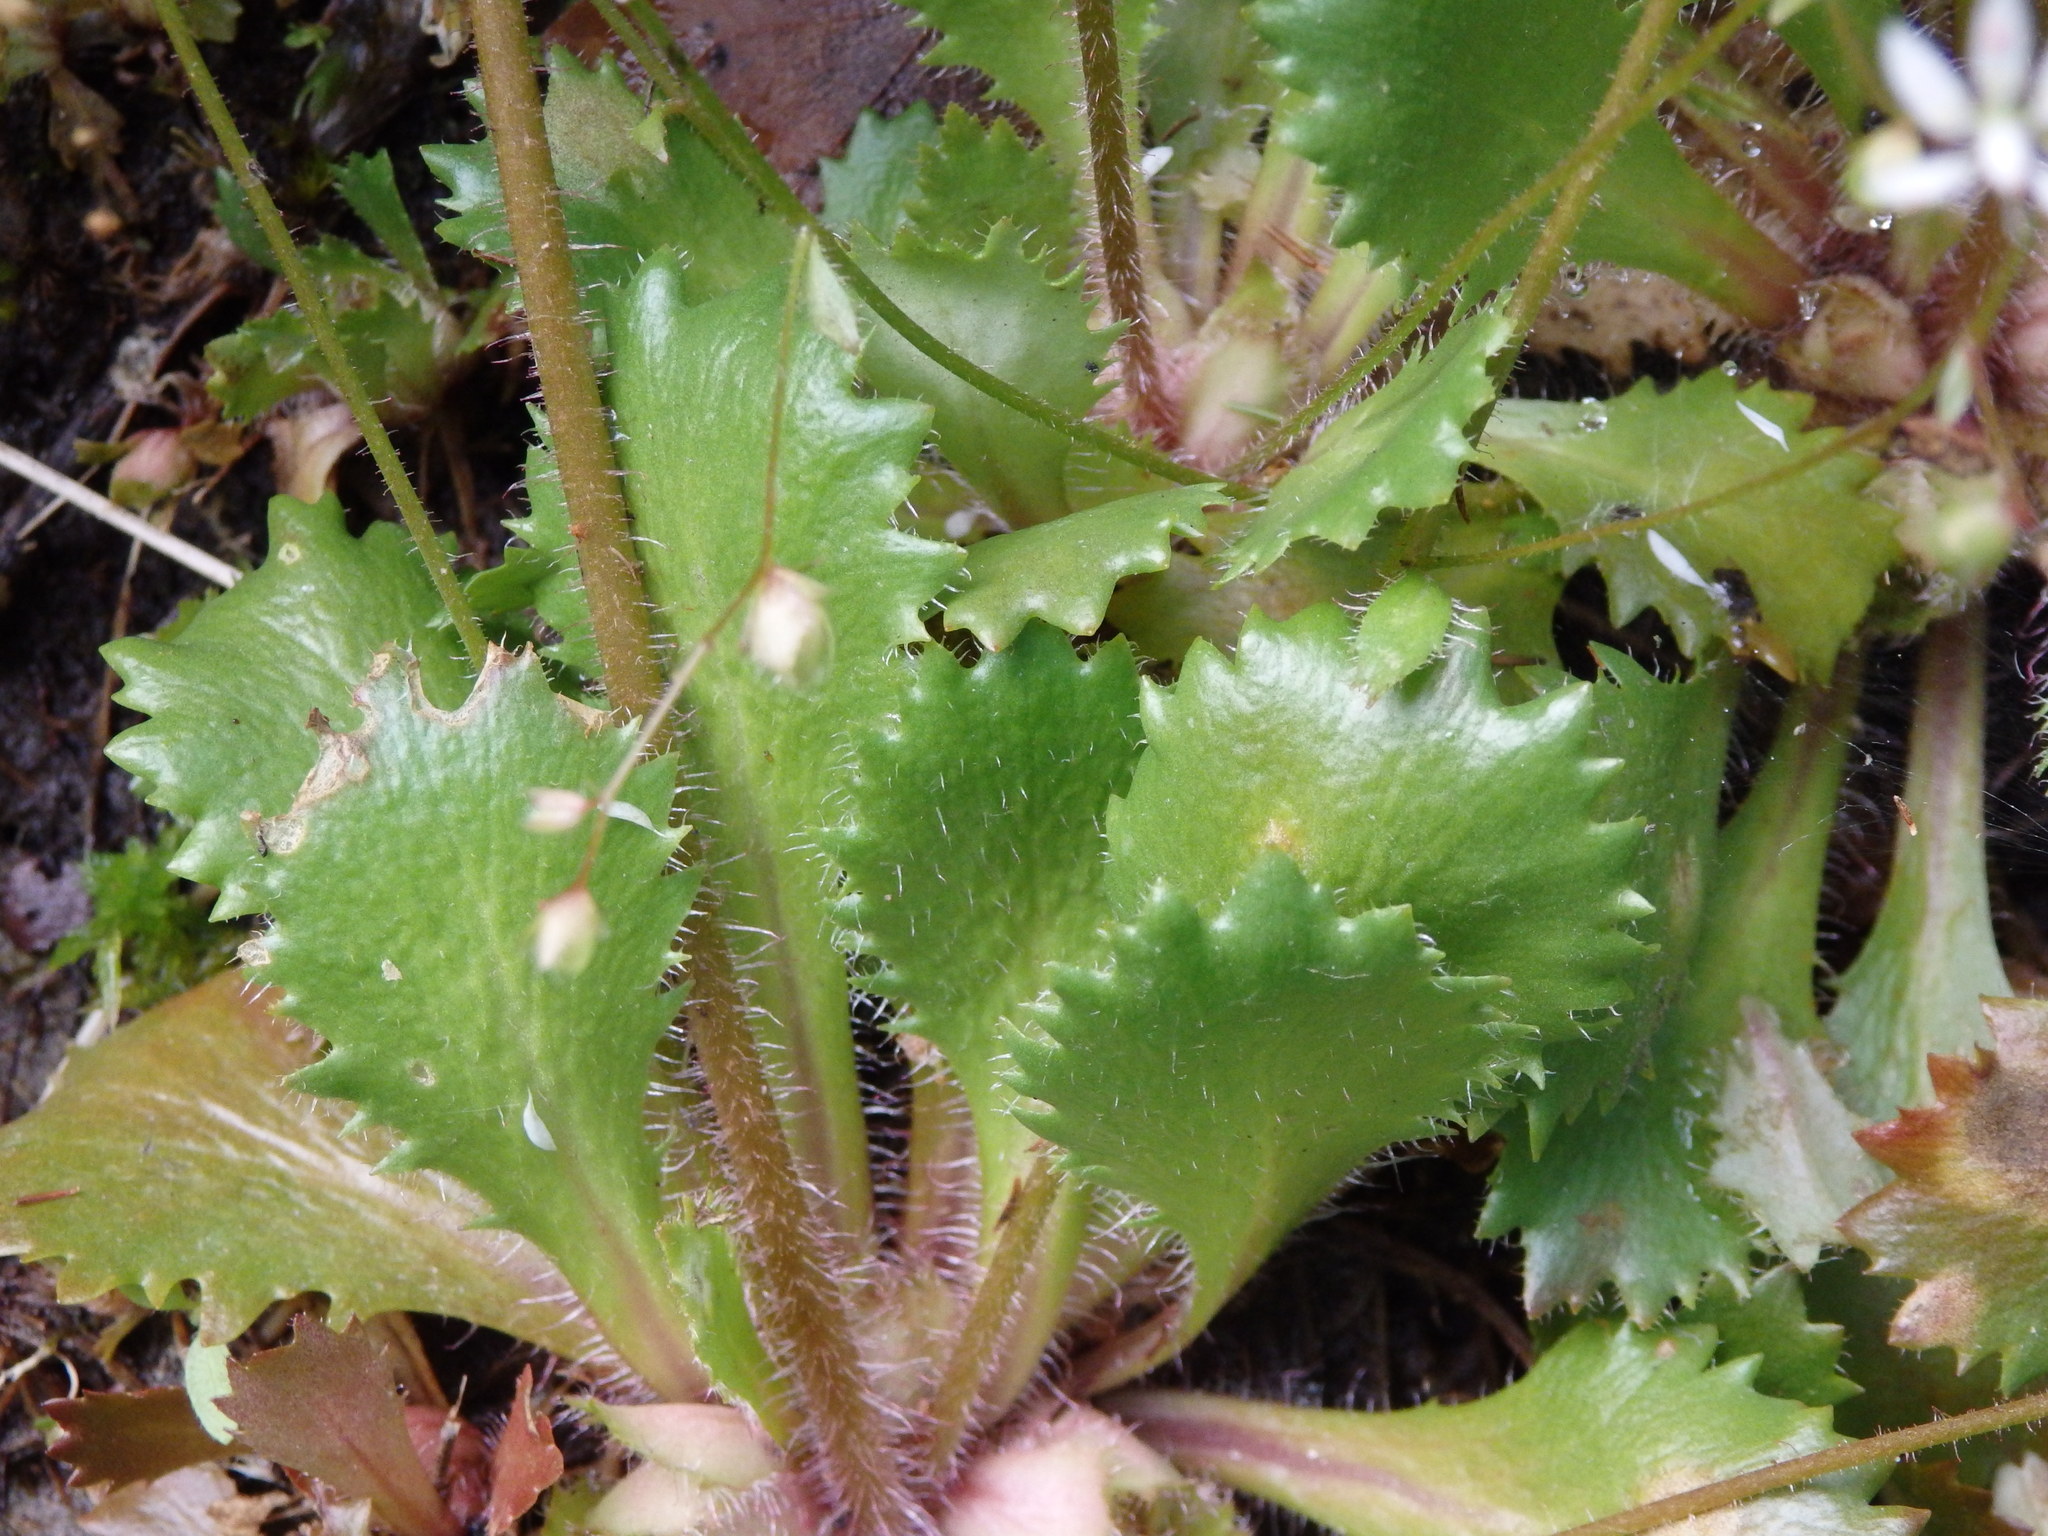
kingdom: Plantae
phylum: Tracheophyta
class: Magnoliopsida
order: Saxifragales
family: Saxifragaceae
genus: Micranthes
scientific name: Micranthes clusii
